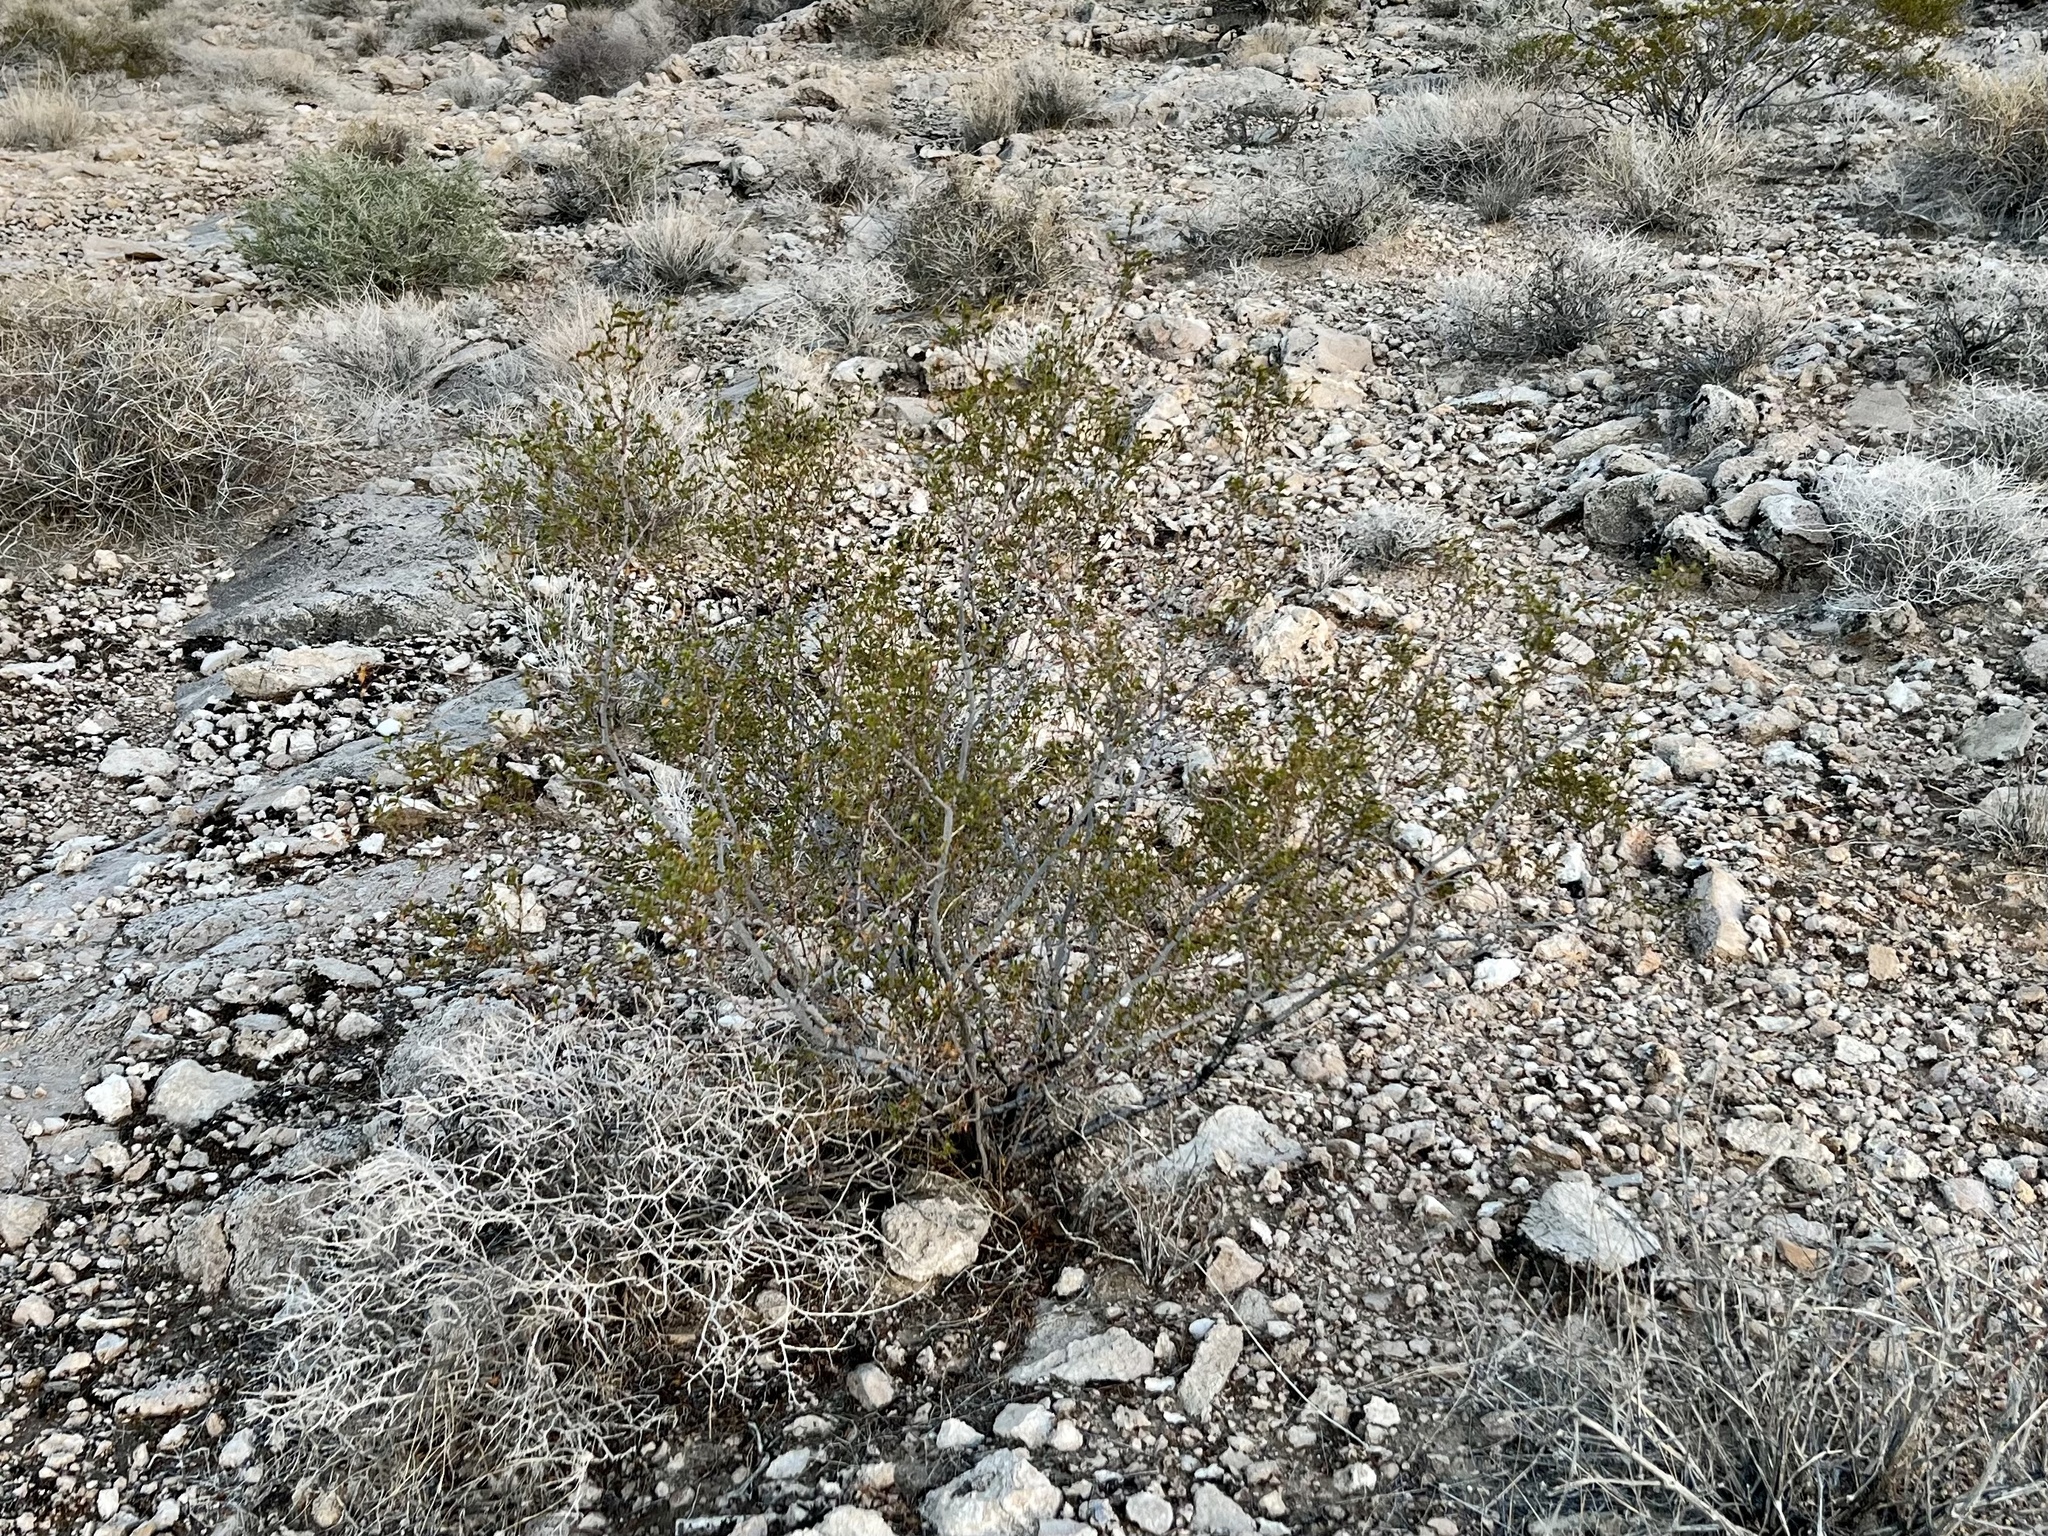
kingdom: Plantae
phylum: Tracheophyta
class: Magnoliopsida
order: Zygophyllales
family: Zygophyllaceae
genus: Larrea
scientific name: Larrea tridentata
